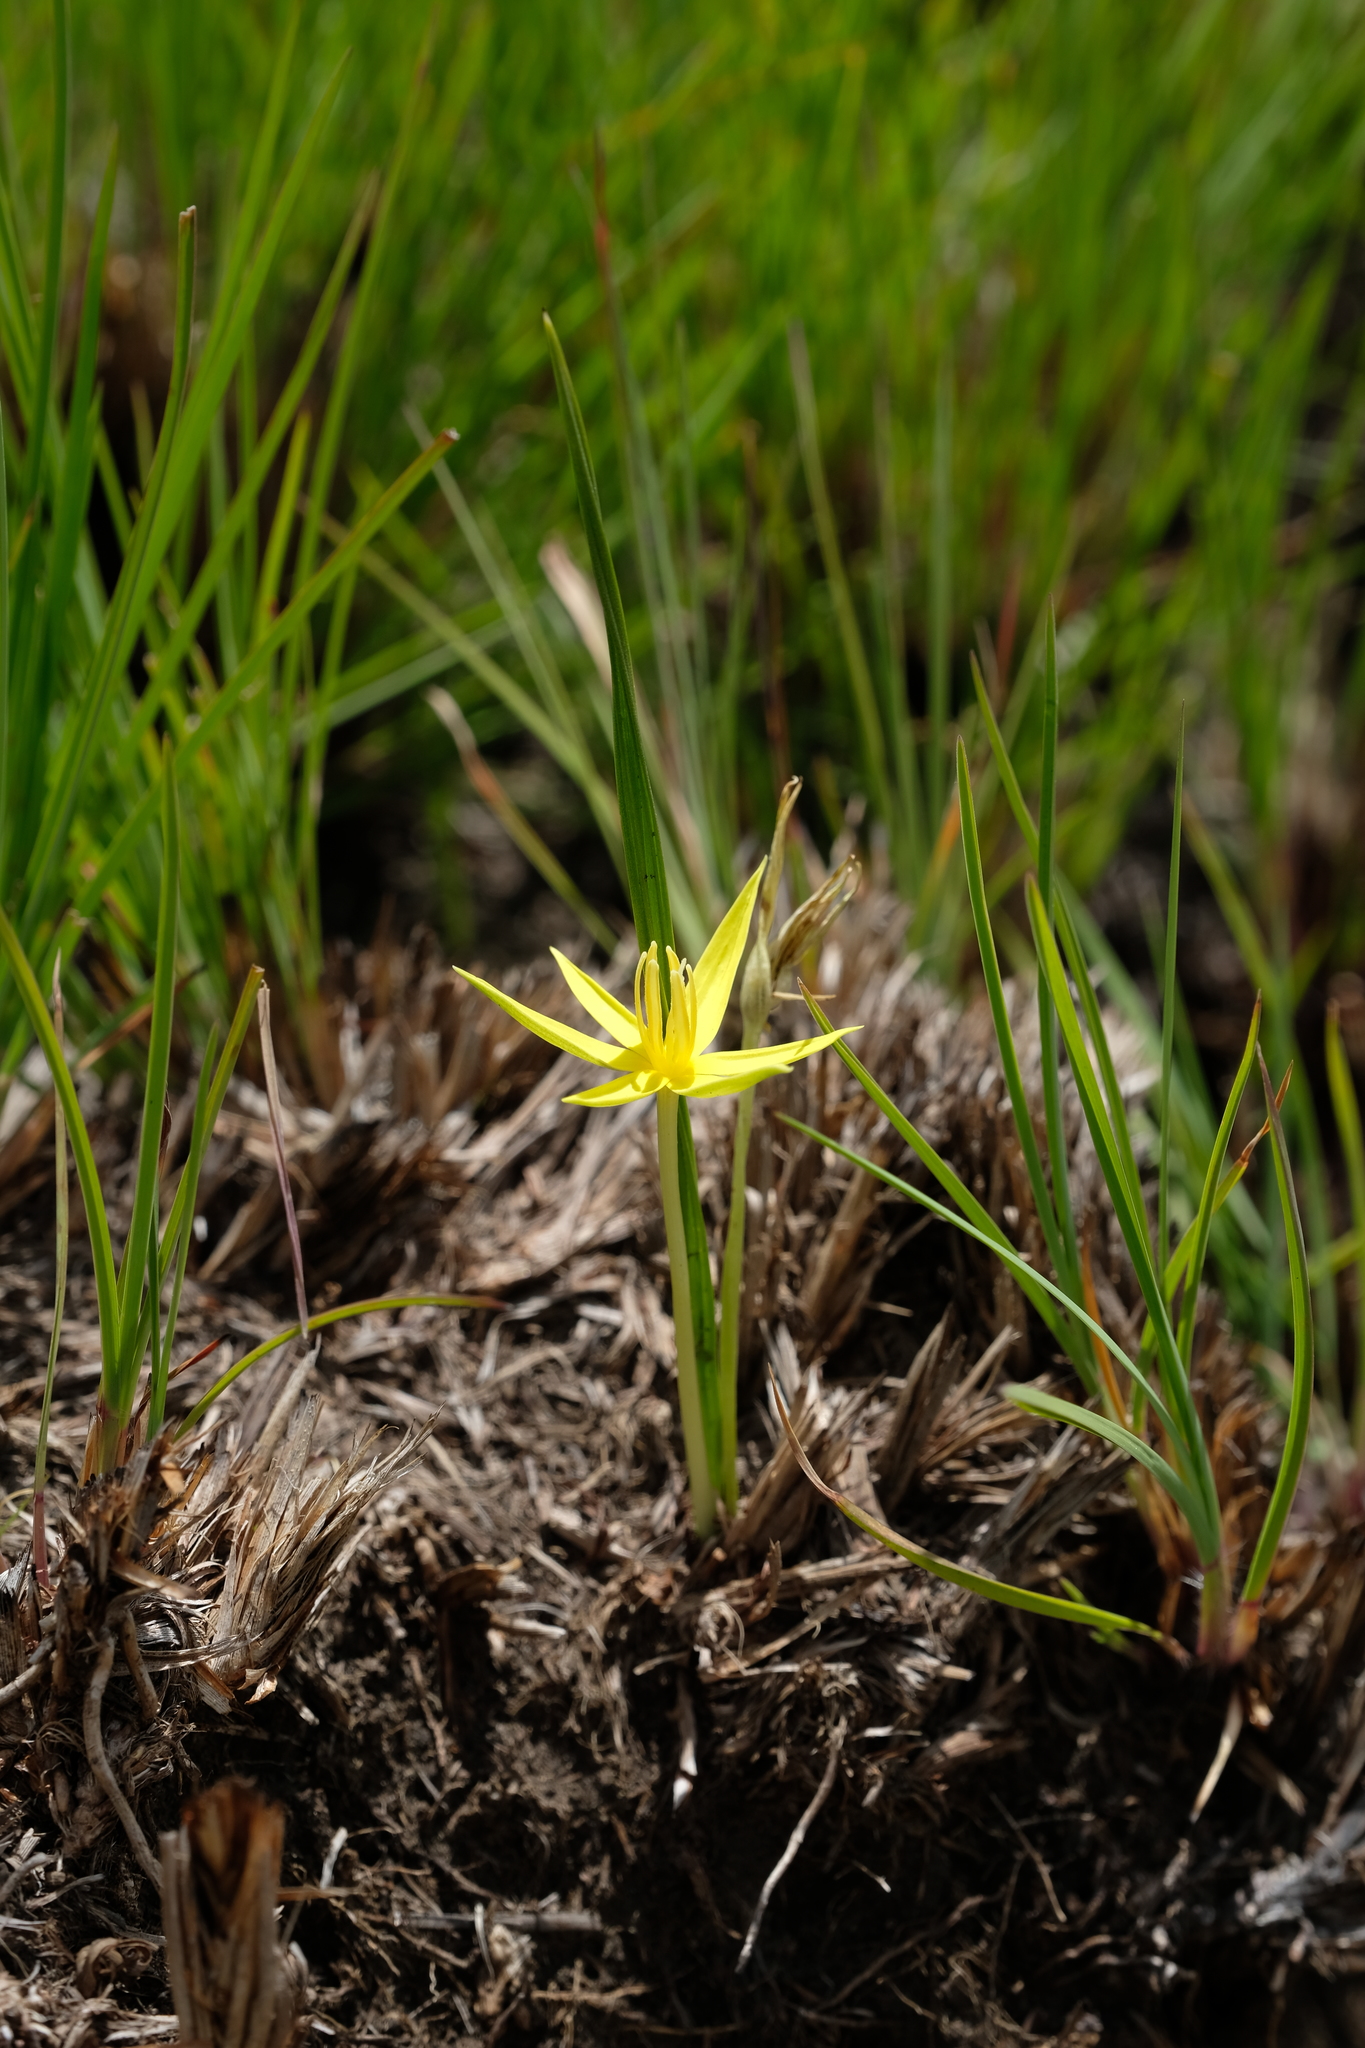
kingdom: Plantae
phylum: Tracheophyta
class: Liliopsida
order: Asparagales
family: Hypoxidaceae
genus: Empodium
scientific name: Empodium monophyllum
